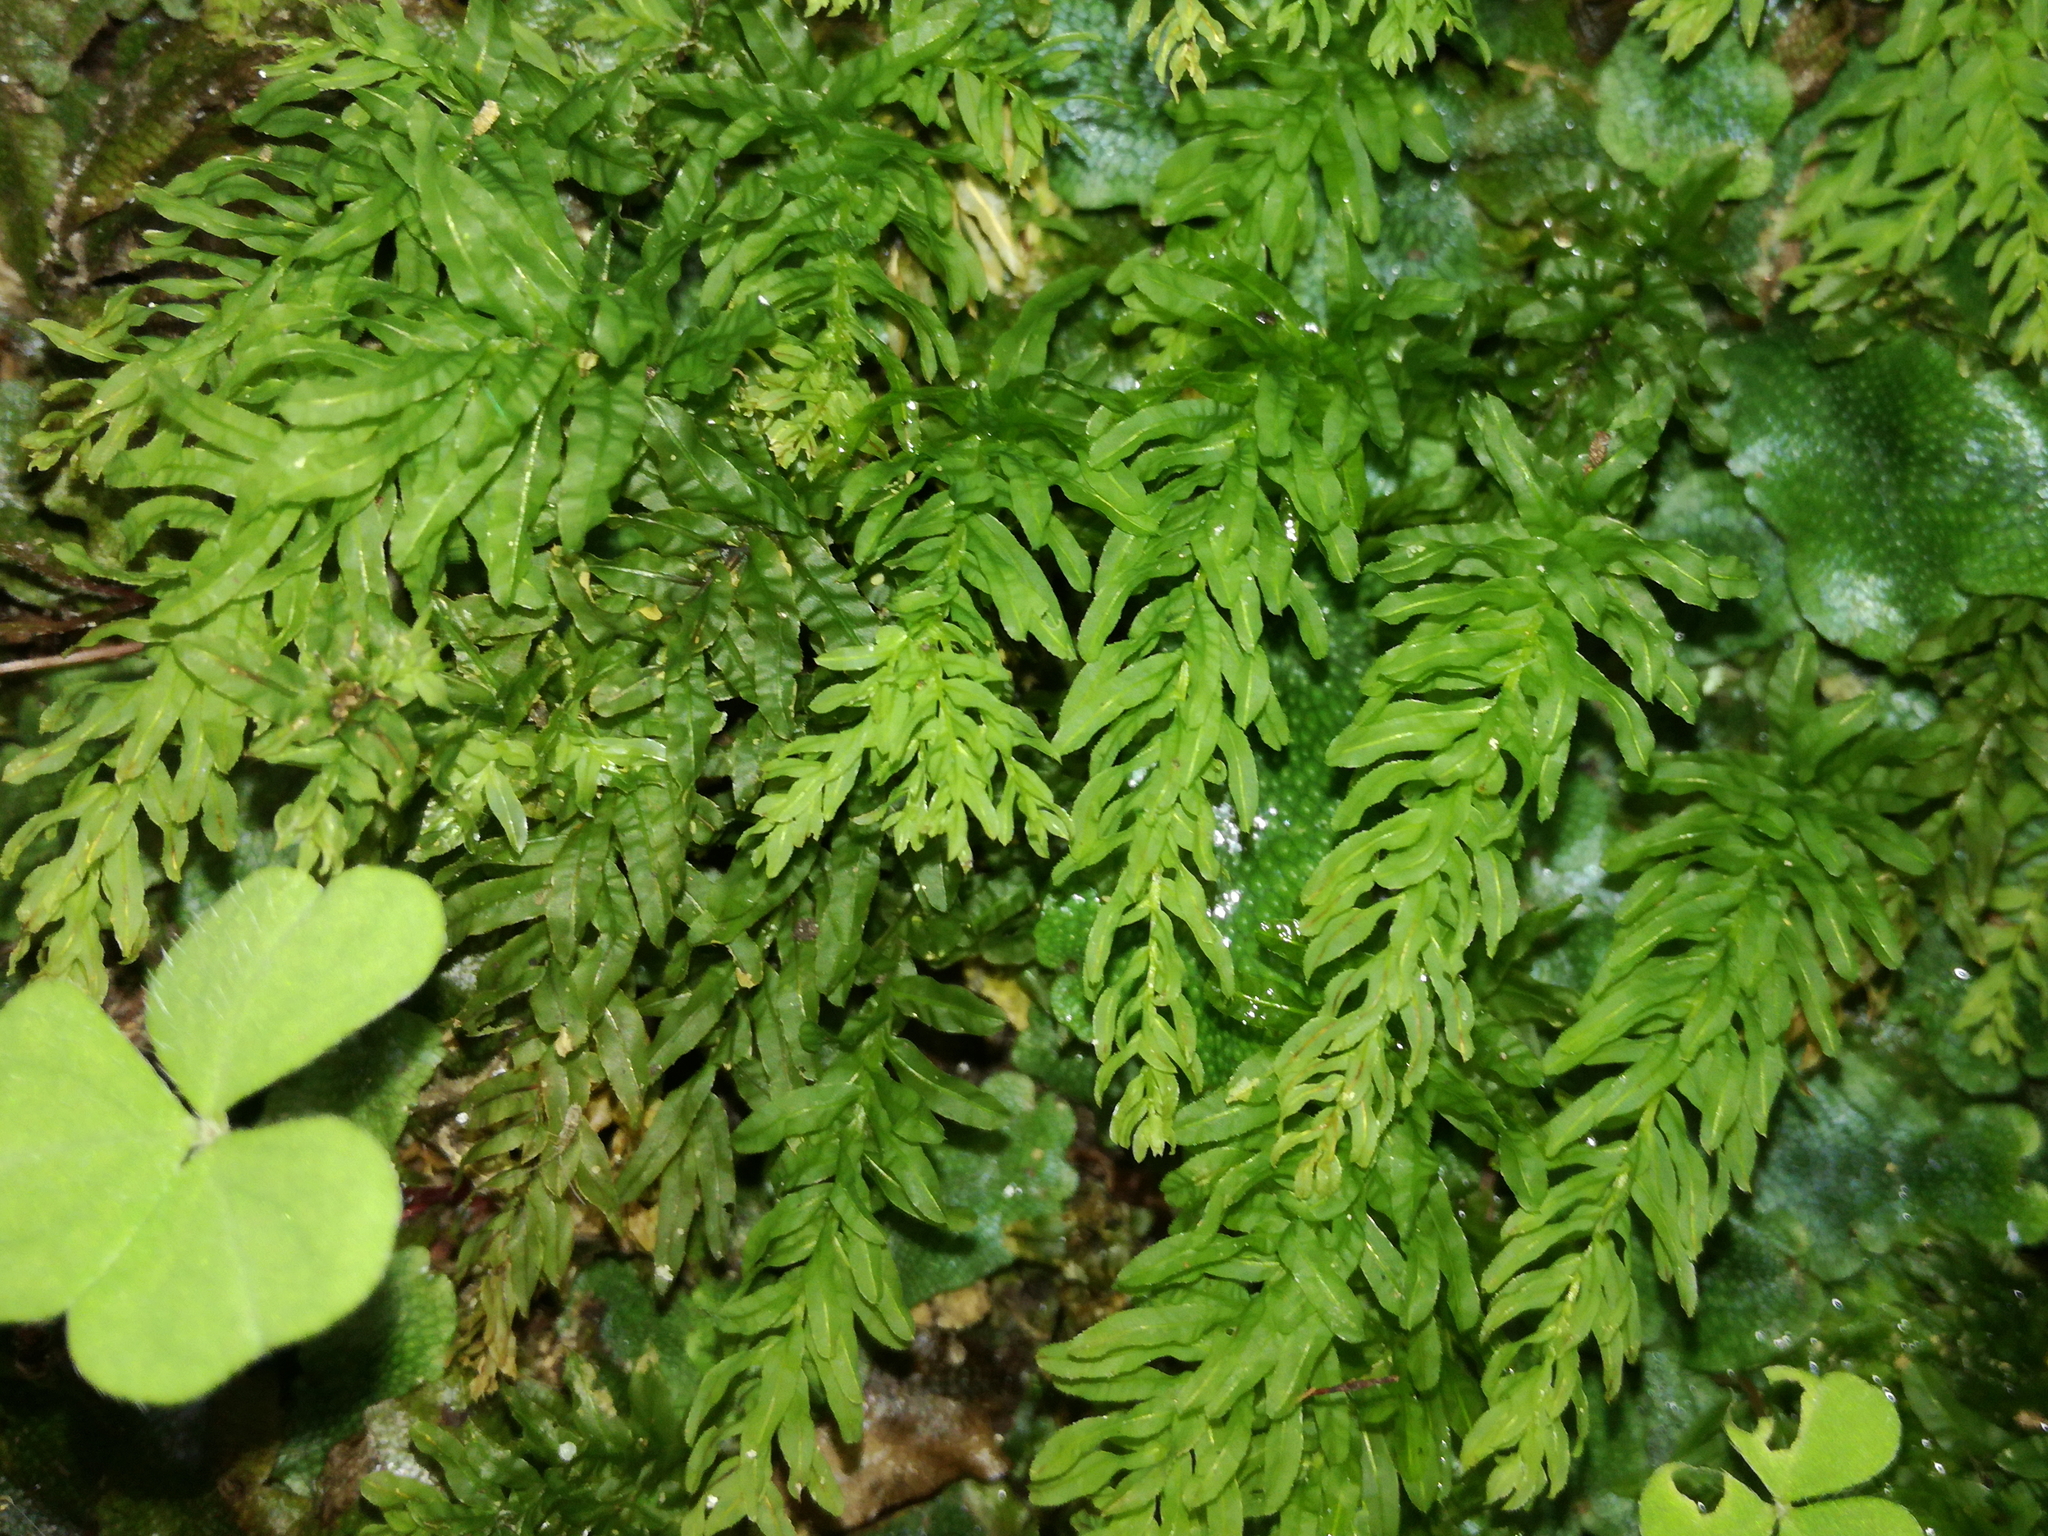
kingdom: Plantae
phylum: Bryophyta
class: Bryopsida
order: Bryales
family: Mniaceae
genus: Plagiomnium
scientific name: Plagiomnium undulatum
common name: Hart's-tongue thyme-moss
